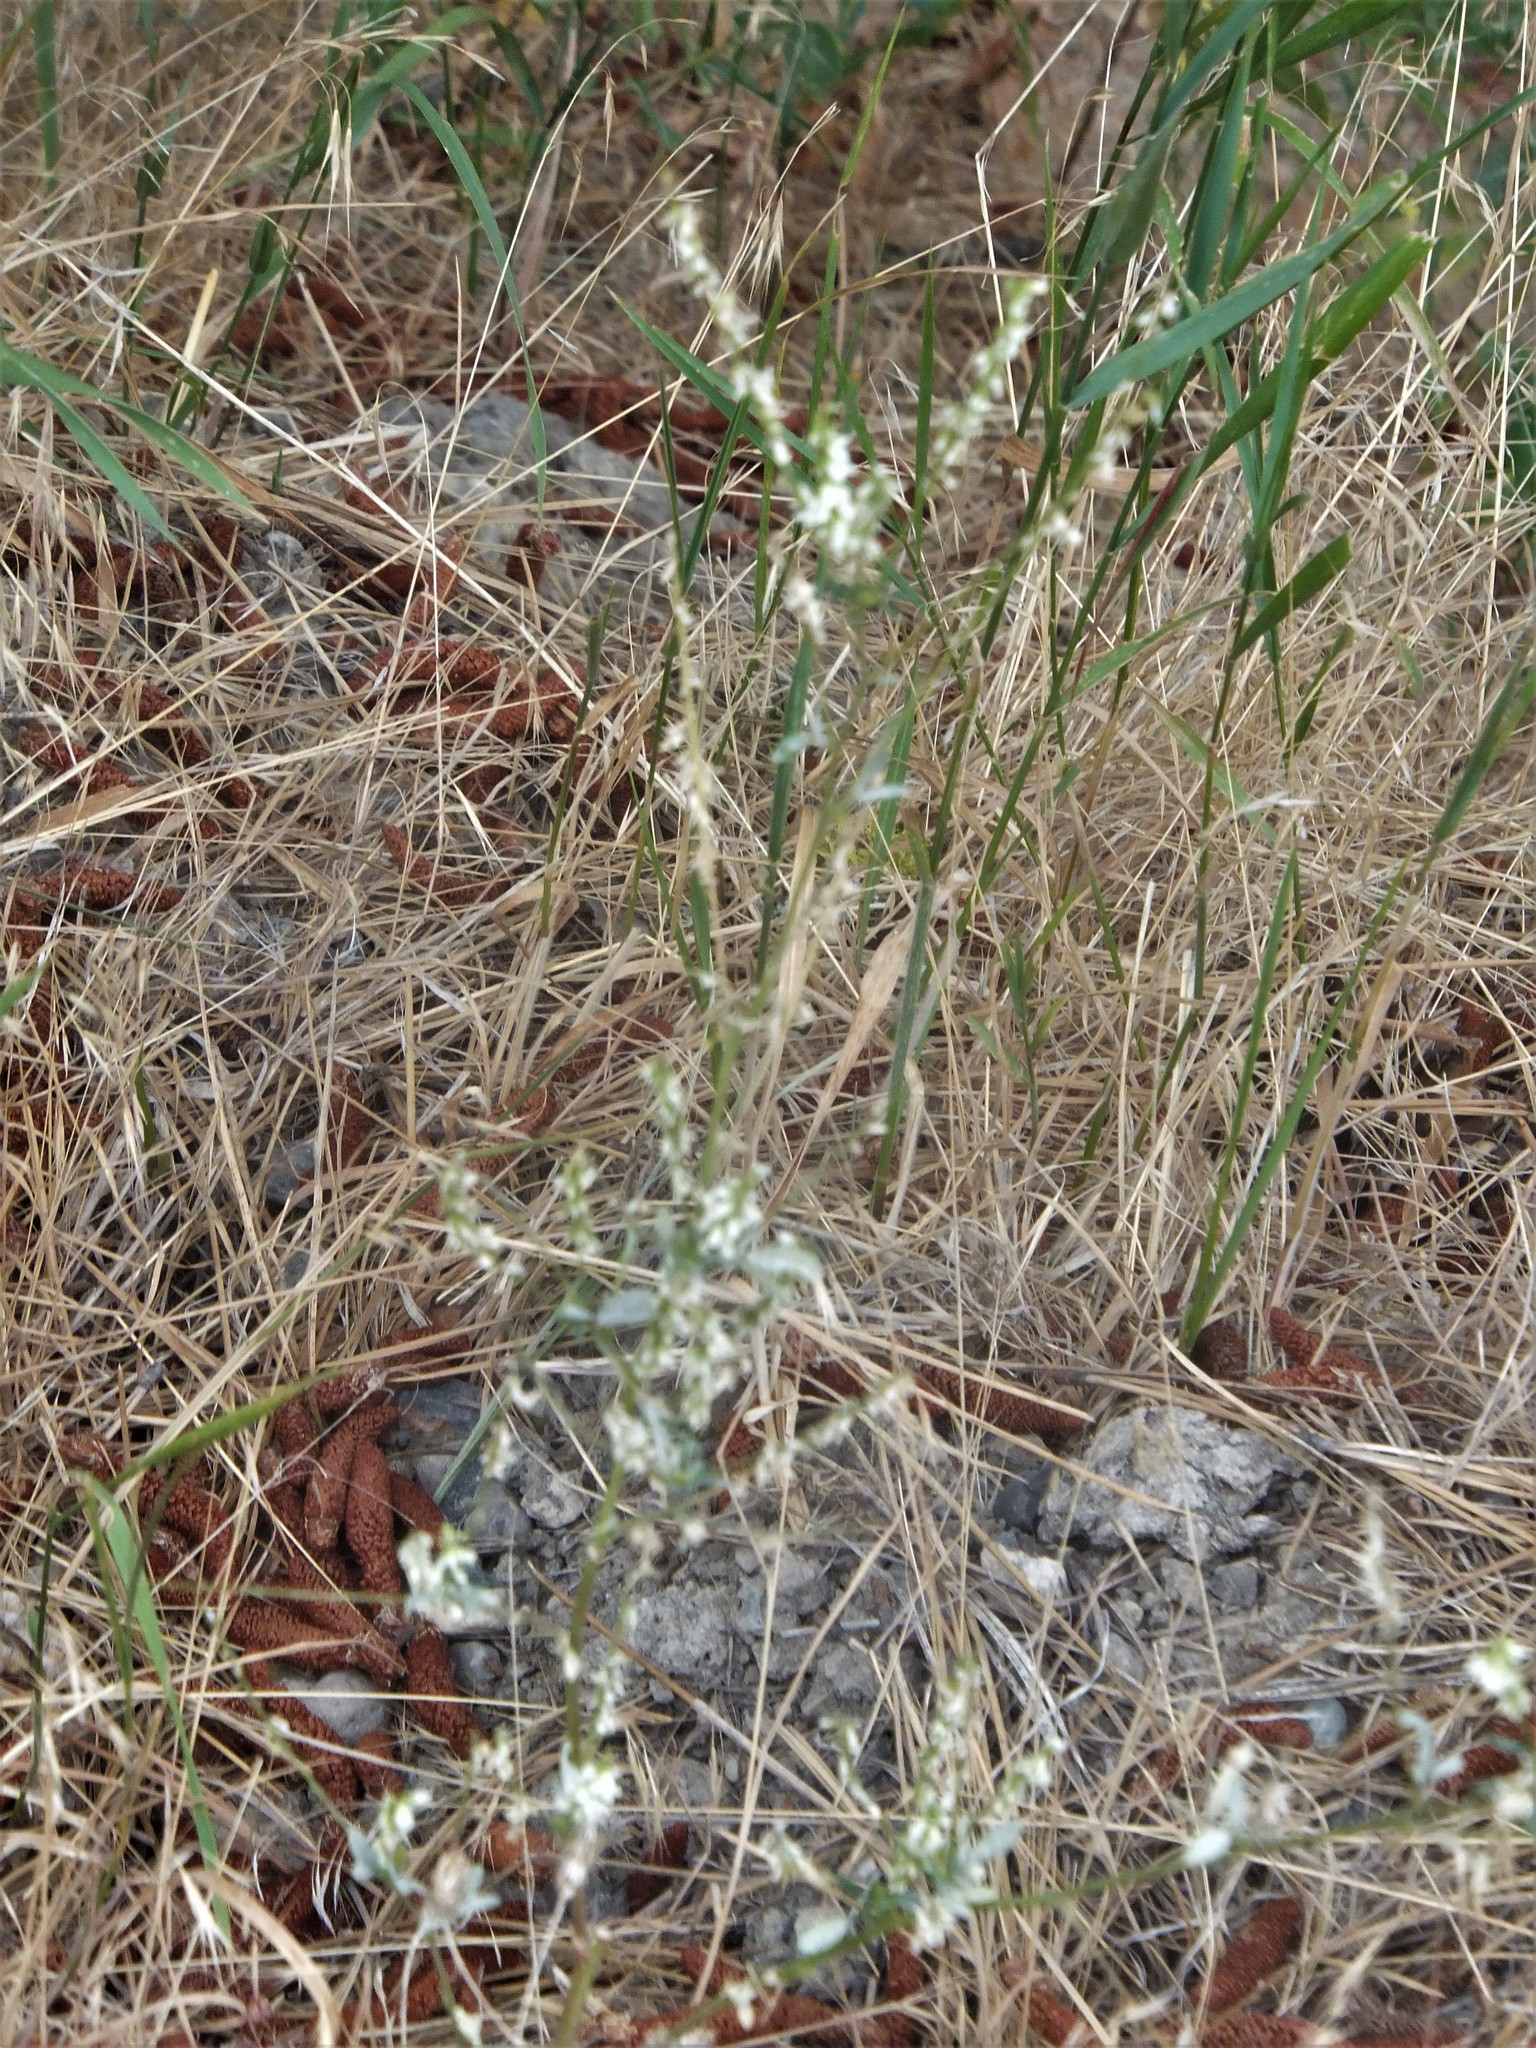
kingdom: Plantae
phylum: Tracheophyta
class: Magnoliopsida
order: Fabales
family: Fabaceae
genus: Melilotus
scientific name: Melilotus albus
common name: White melilot
